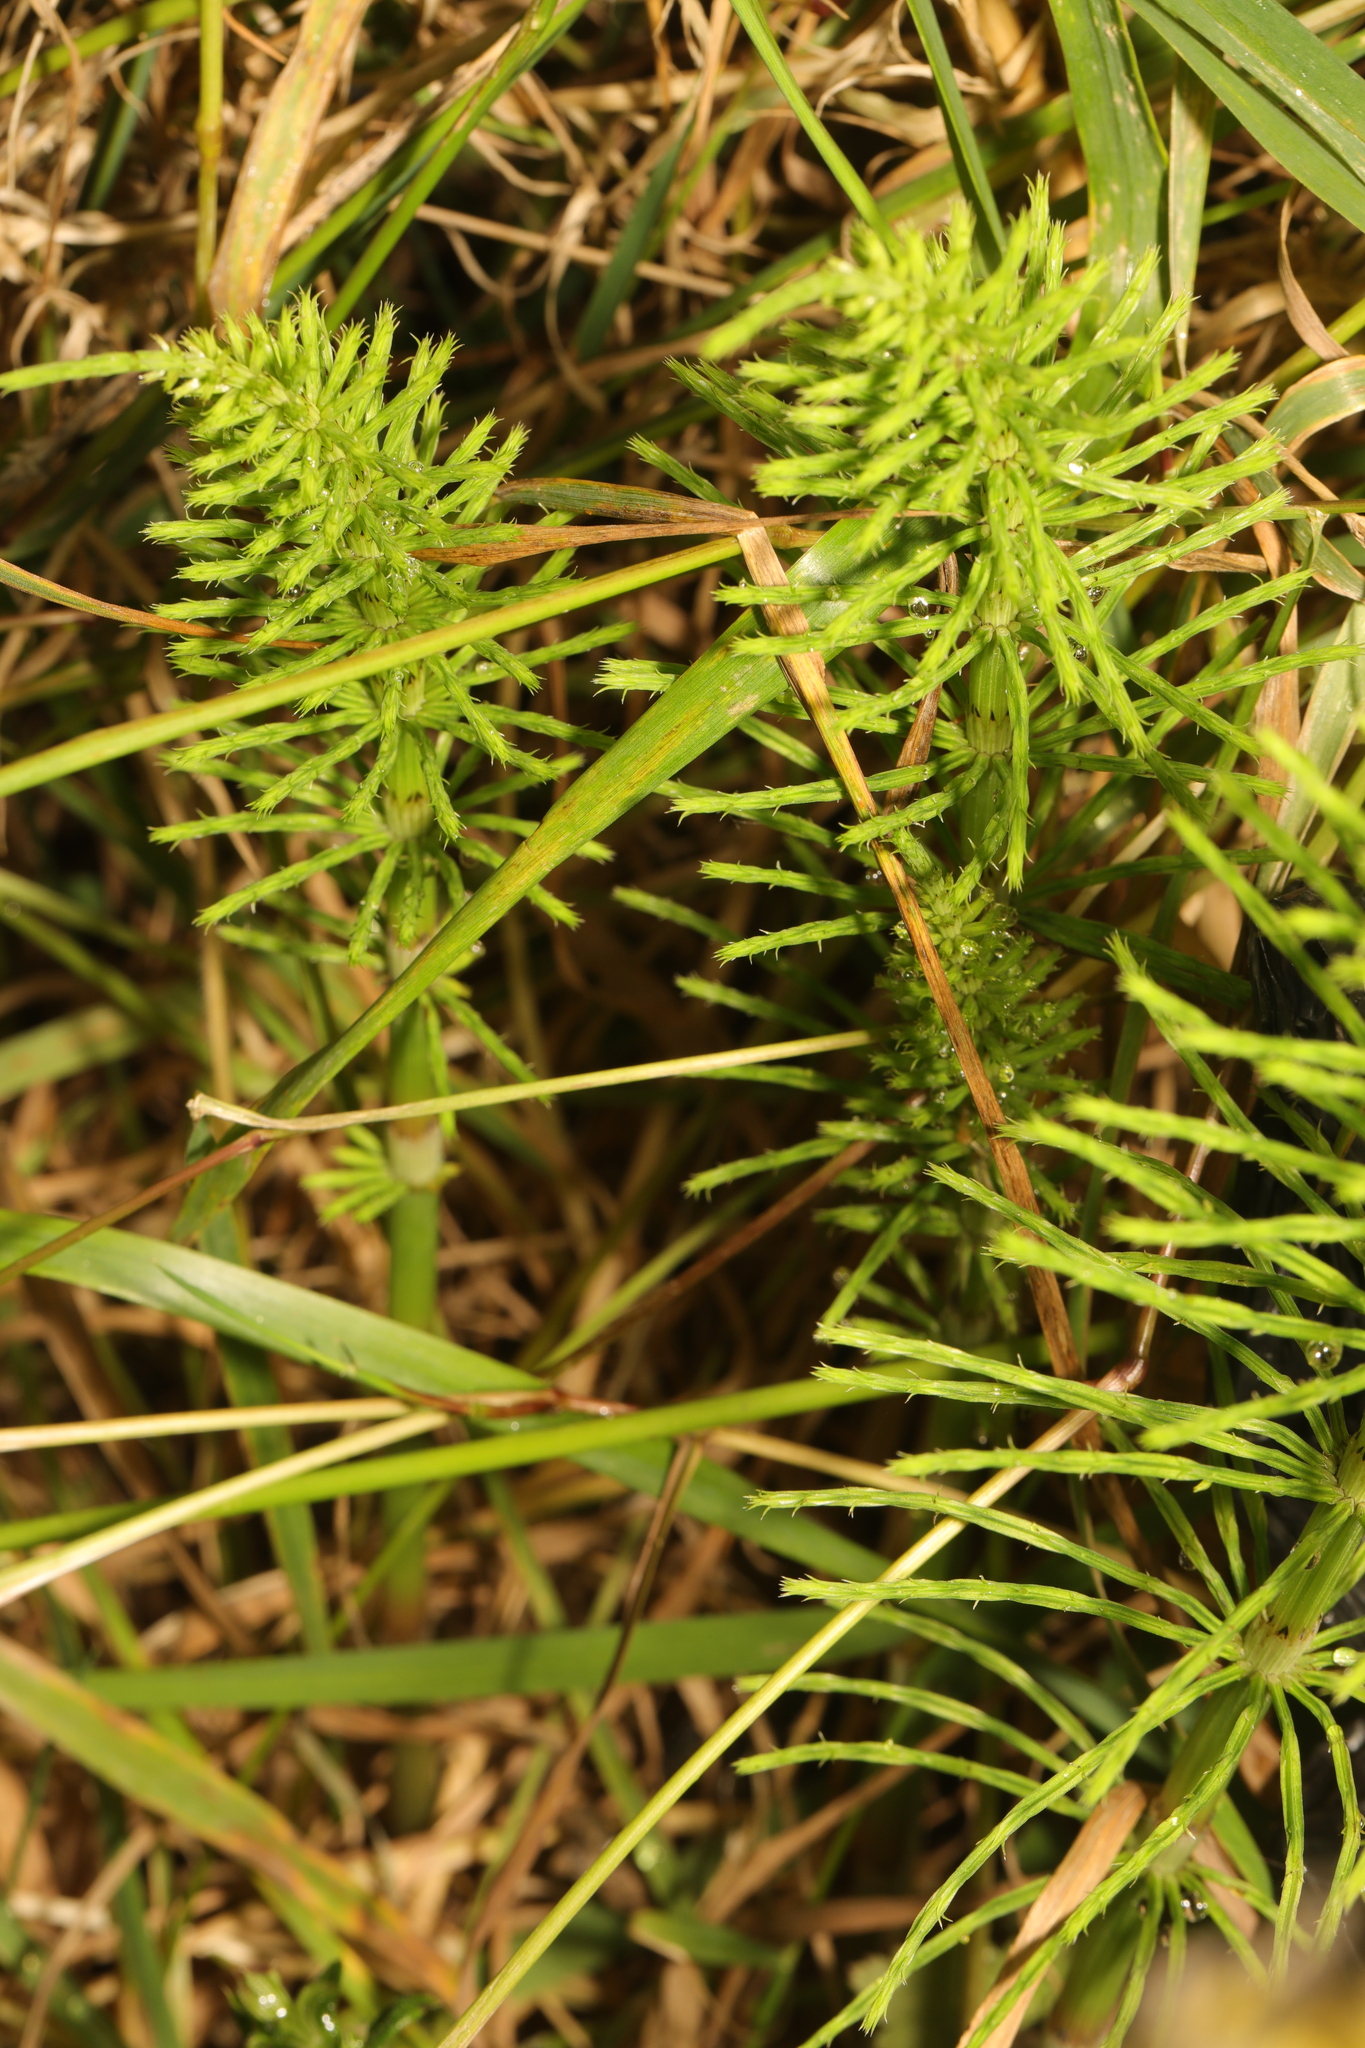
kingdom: Plantae
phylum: Tracheophyta
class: Polypodiopsida
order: Equisetales
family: Equisetaceae
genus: Equisetum
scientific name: Equisetum arvense
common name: Field horsetail
